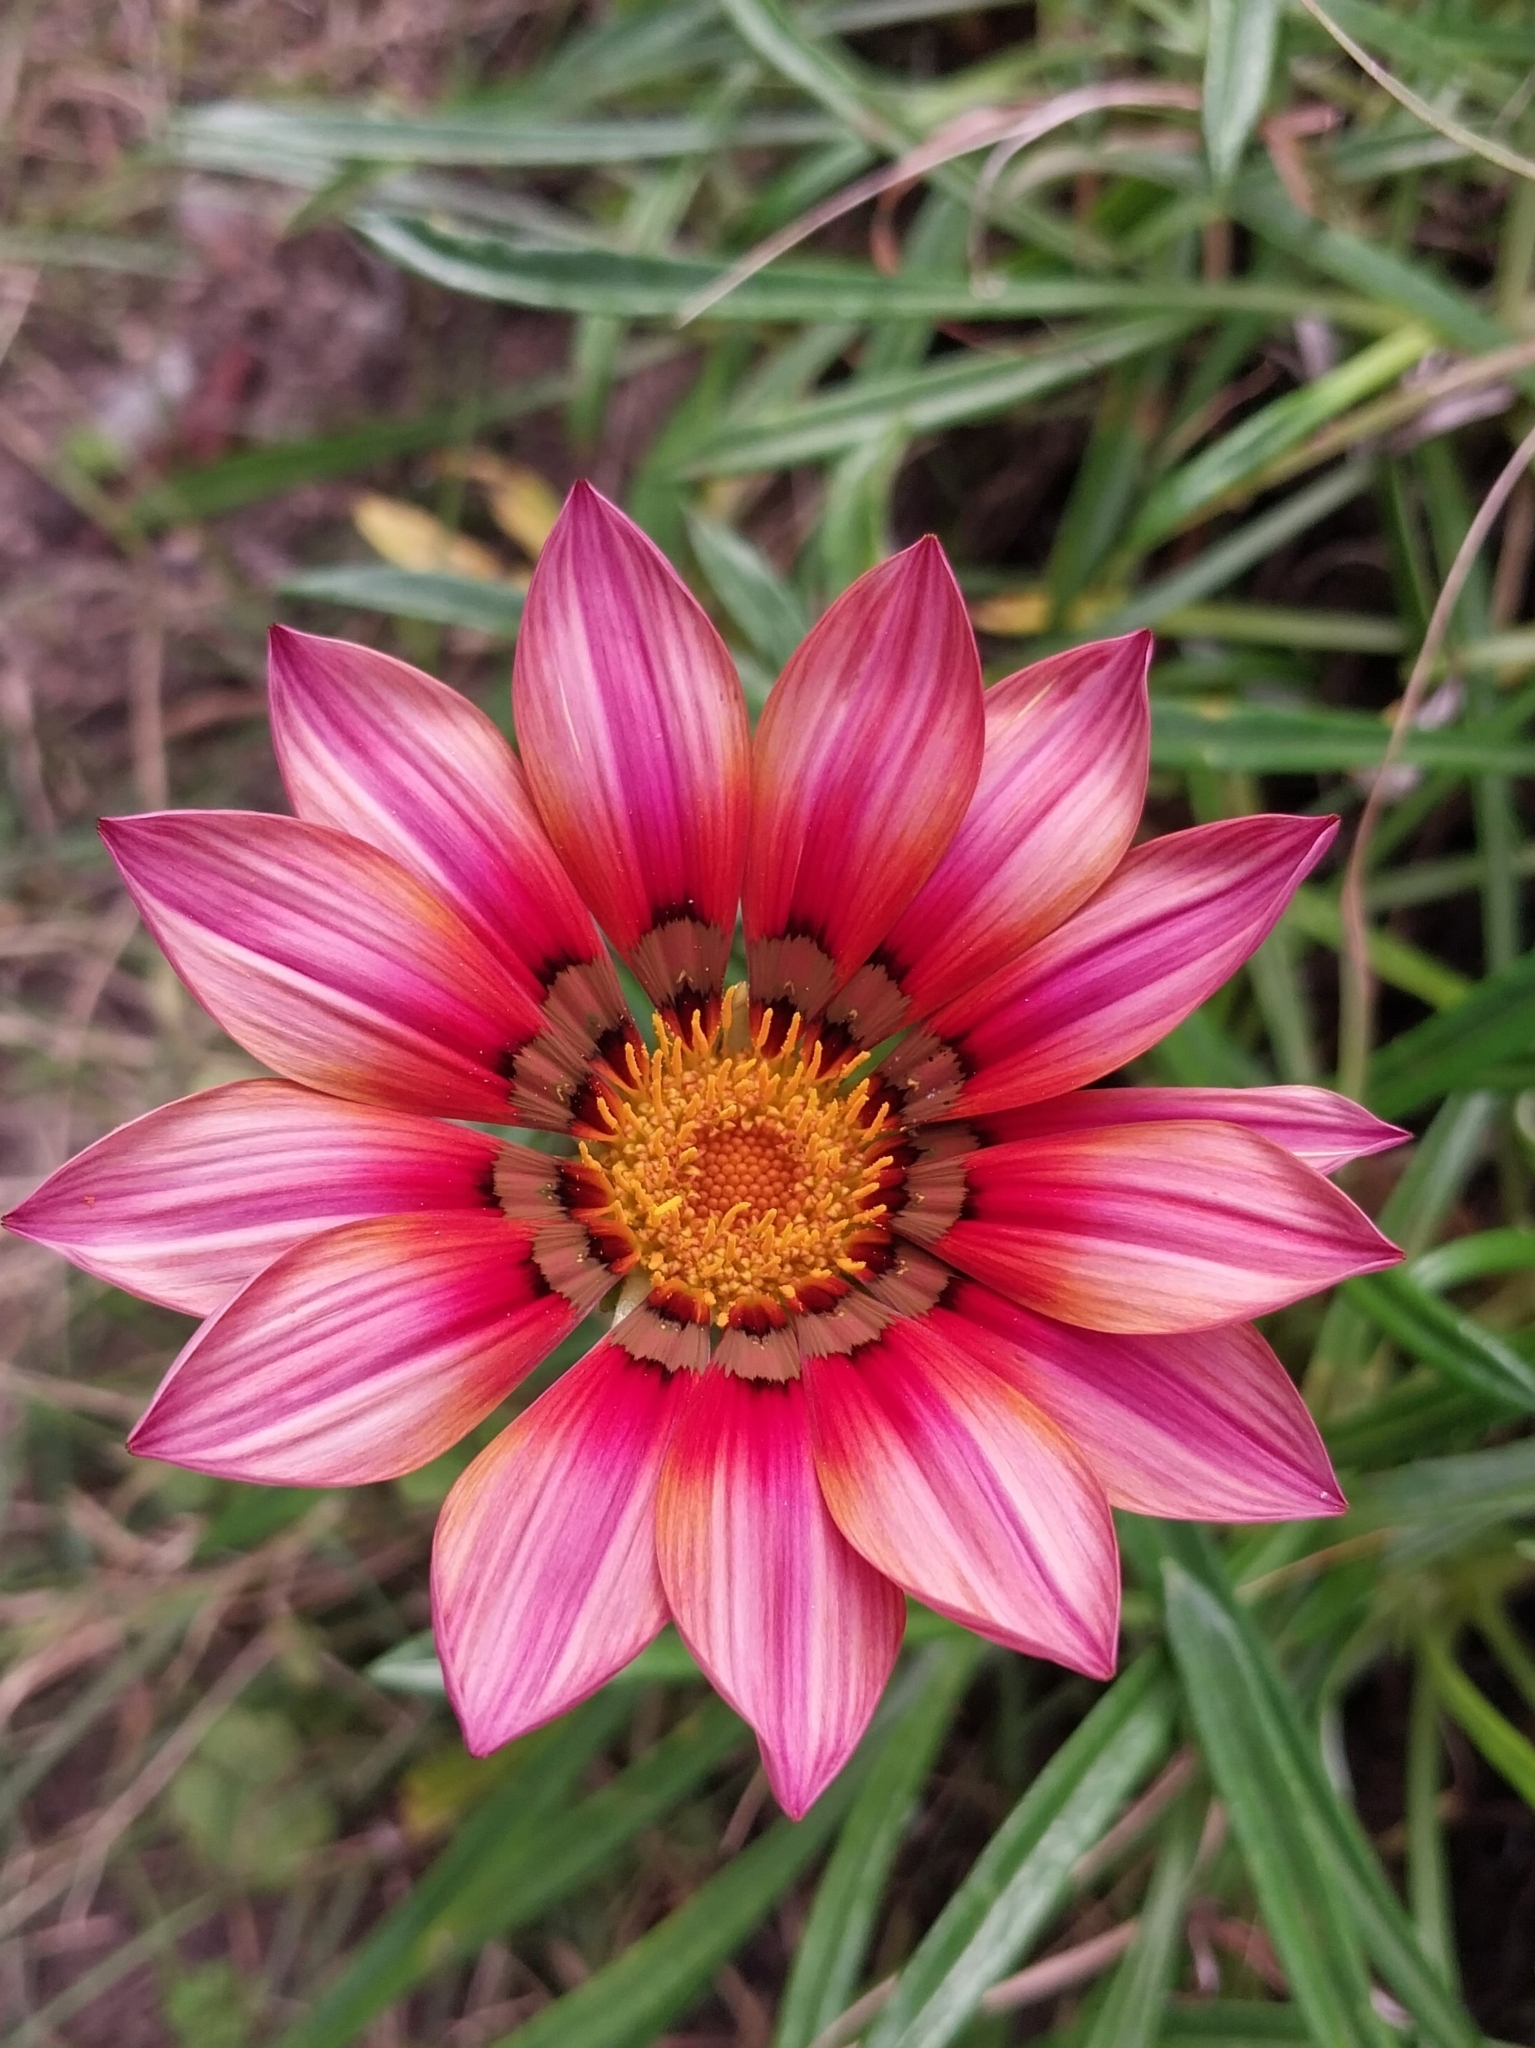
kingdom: Plantae
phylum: Tracheophyta
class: Magnoliopsida
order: Asterales
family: Asteraceae
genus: Gazania
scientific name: Gazania splendens
